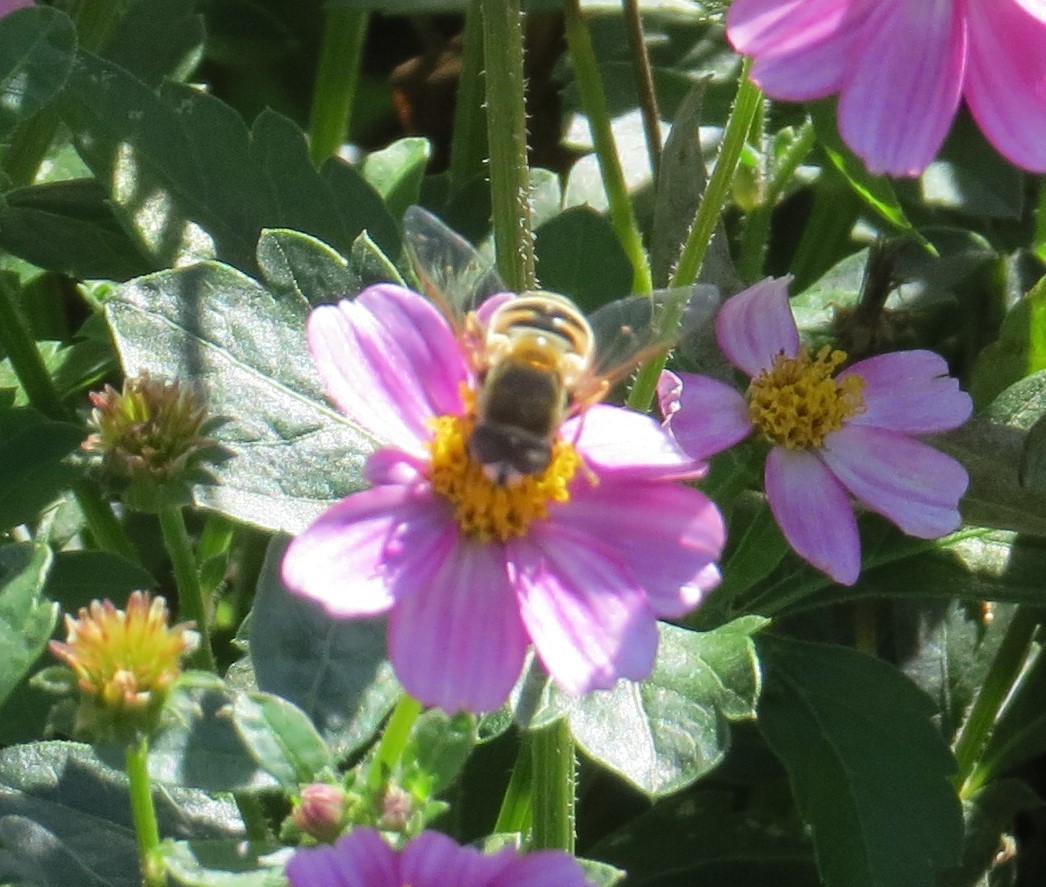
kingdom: Animalia
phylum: Arthropoda
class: Insecta
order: Diptera
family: Syrphidae
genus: Eristalis
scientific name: Eristalis stipator
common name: Yellow-shouldered drone fly
